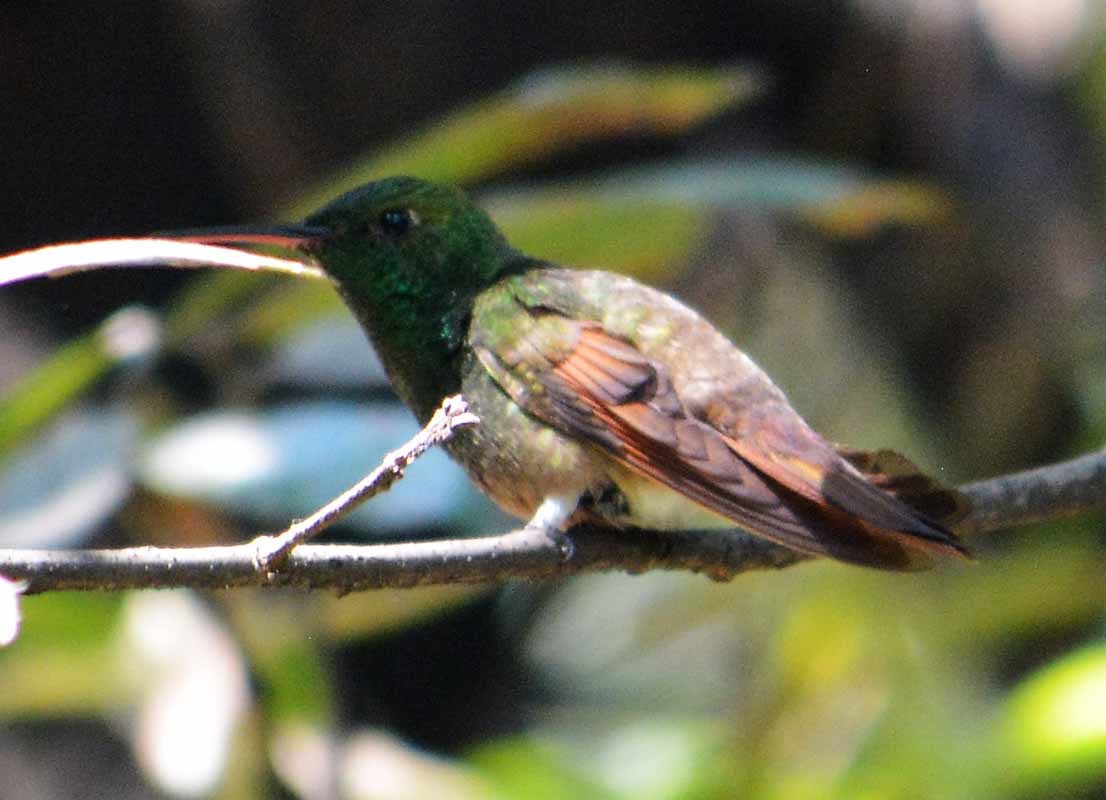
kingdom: Animalia
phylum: Chordata
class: Aves
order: Apodiformes
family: Trochilidae
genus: Saucerottia
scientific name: Saucerottia beryllina
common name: Berylline hummingbird
